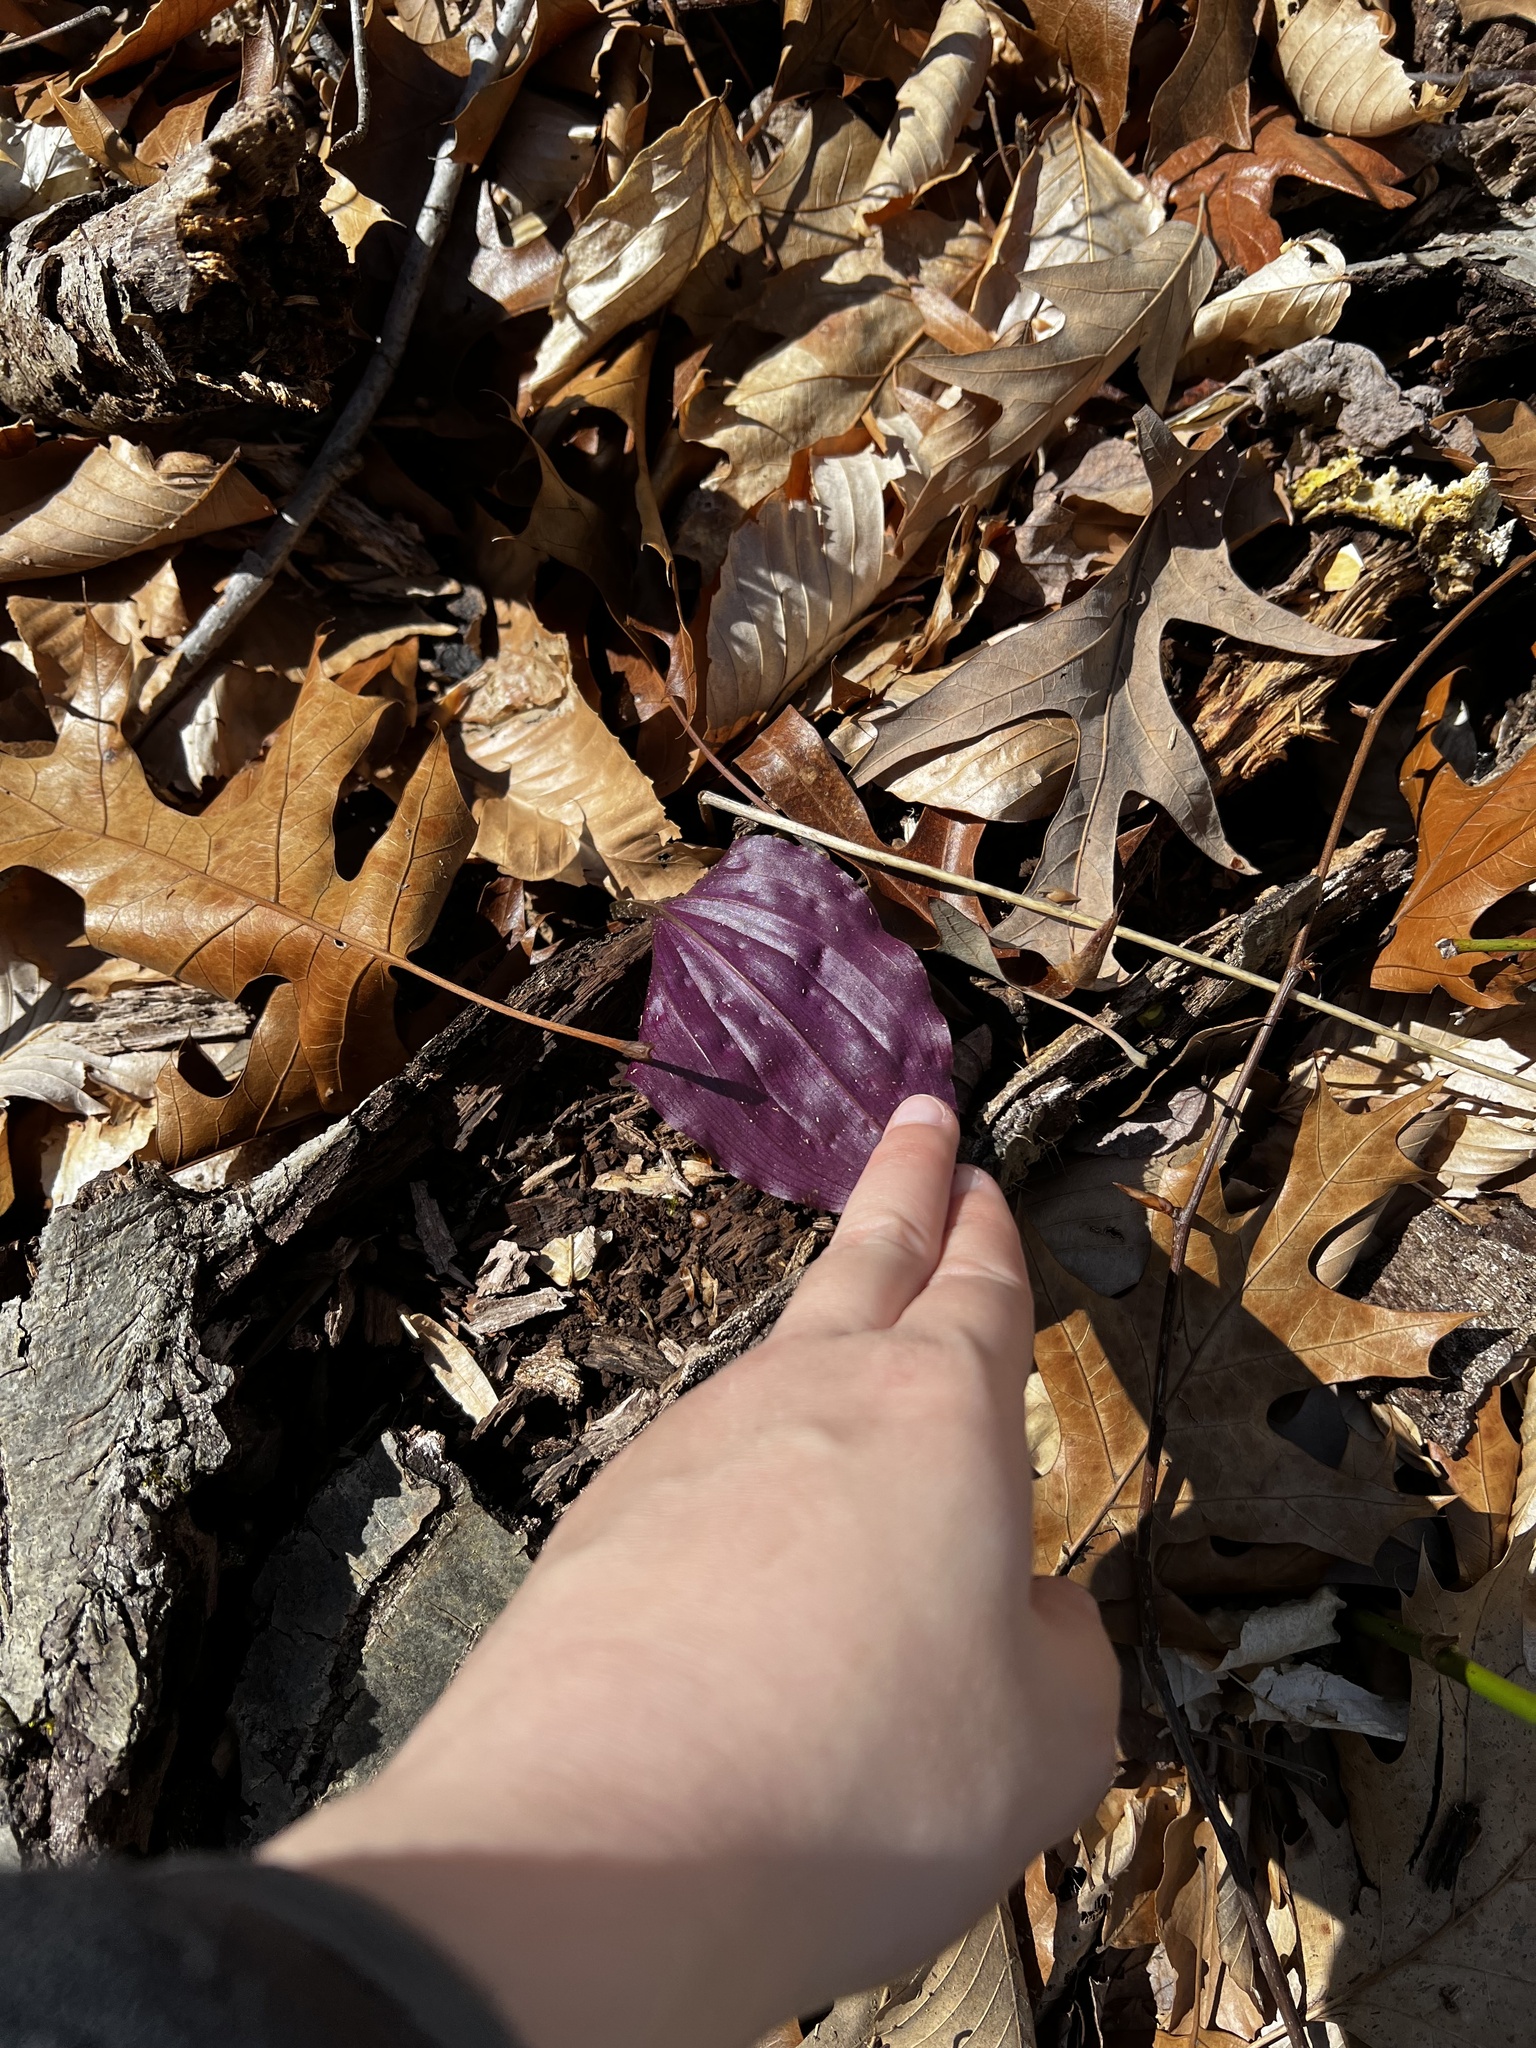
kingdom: Plantae
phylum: Tracheophyta
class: Liliopsida
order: Asparagales
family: Orchidaceae
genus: Tipularia
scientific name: Tipularia discolor
